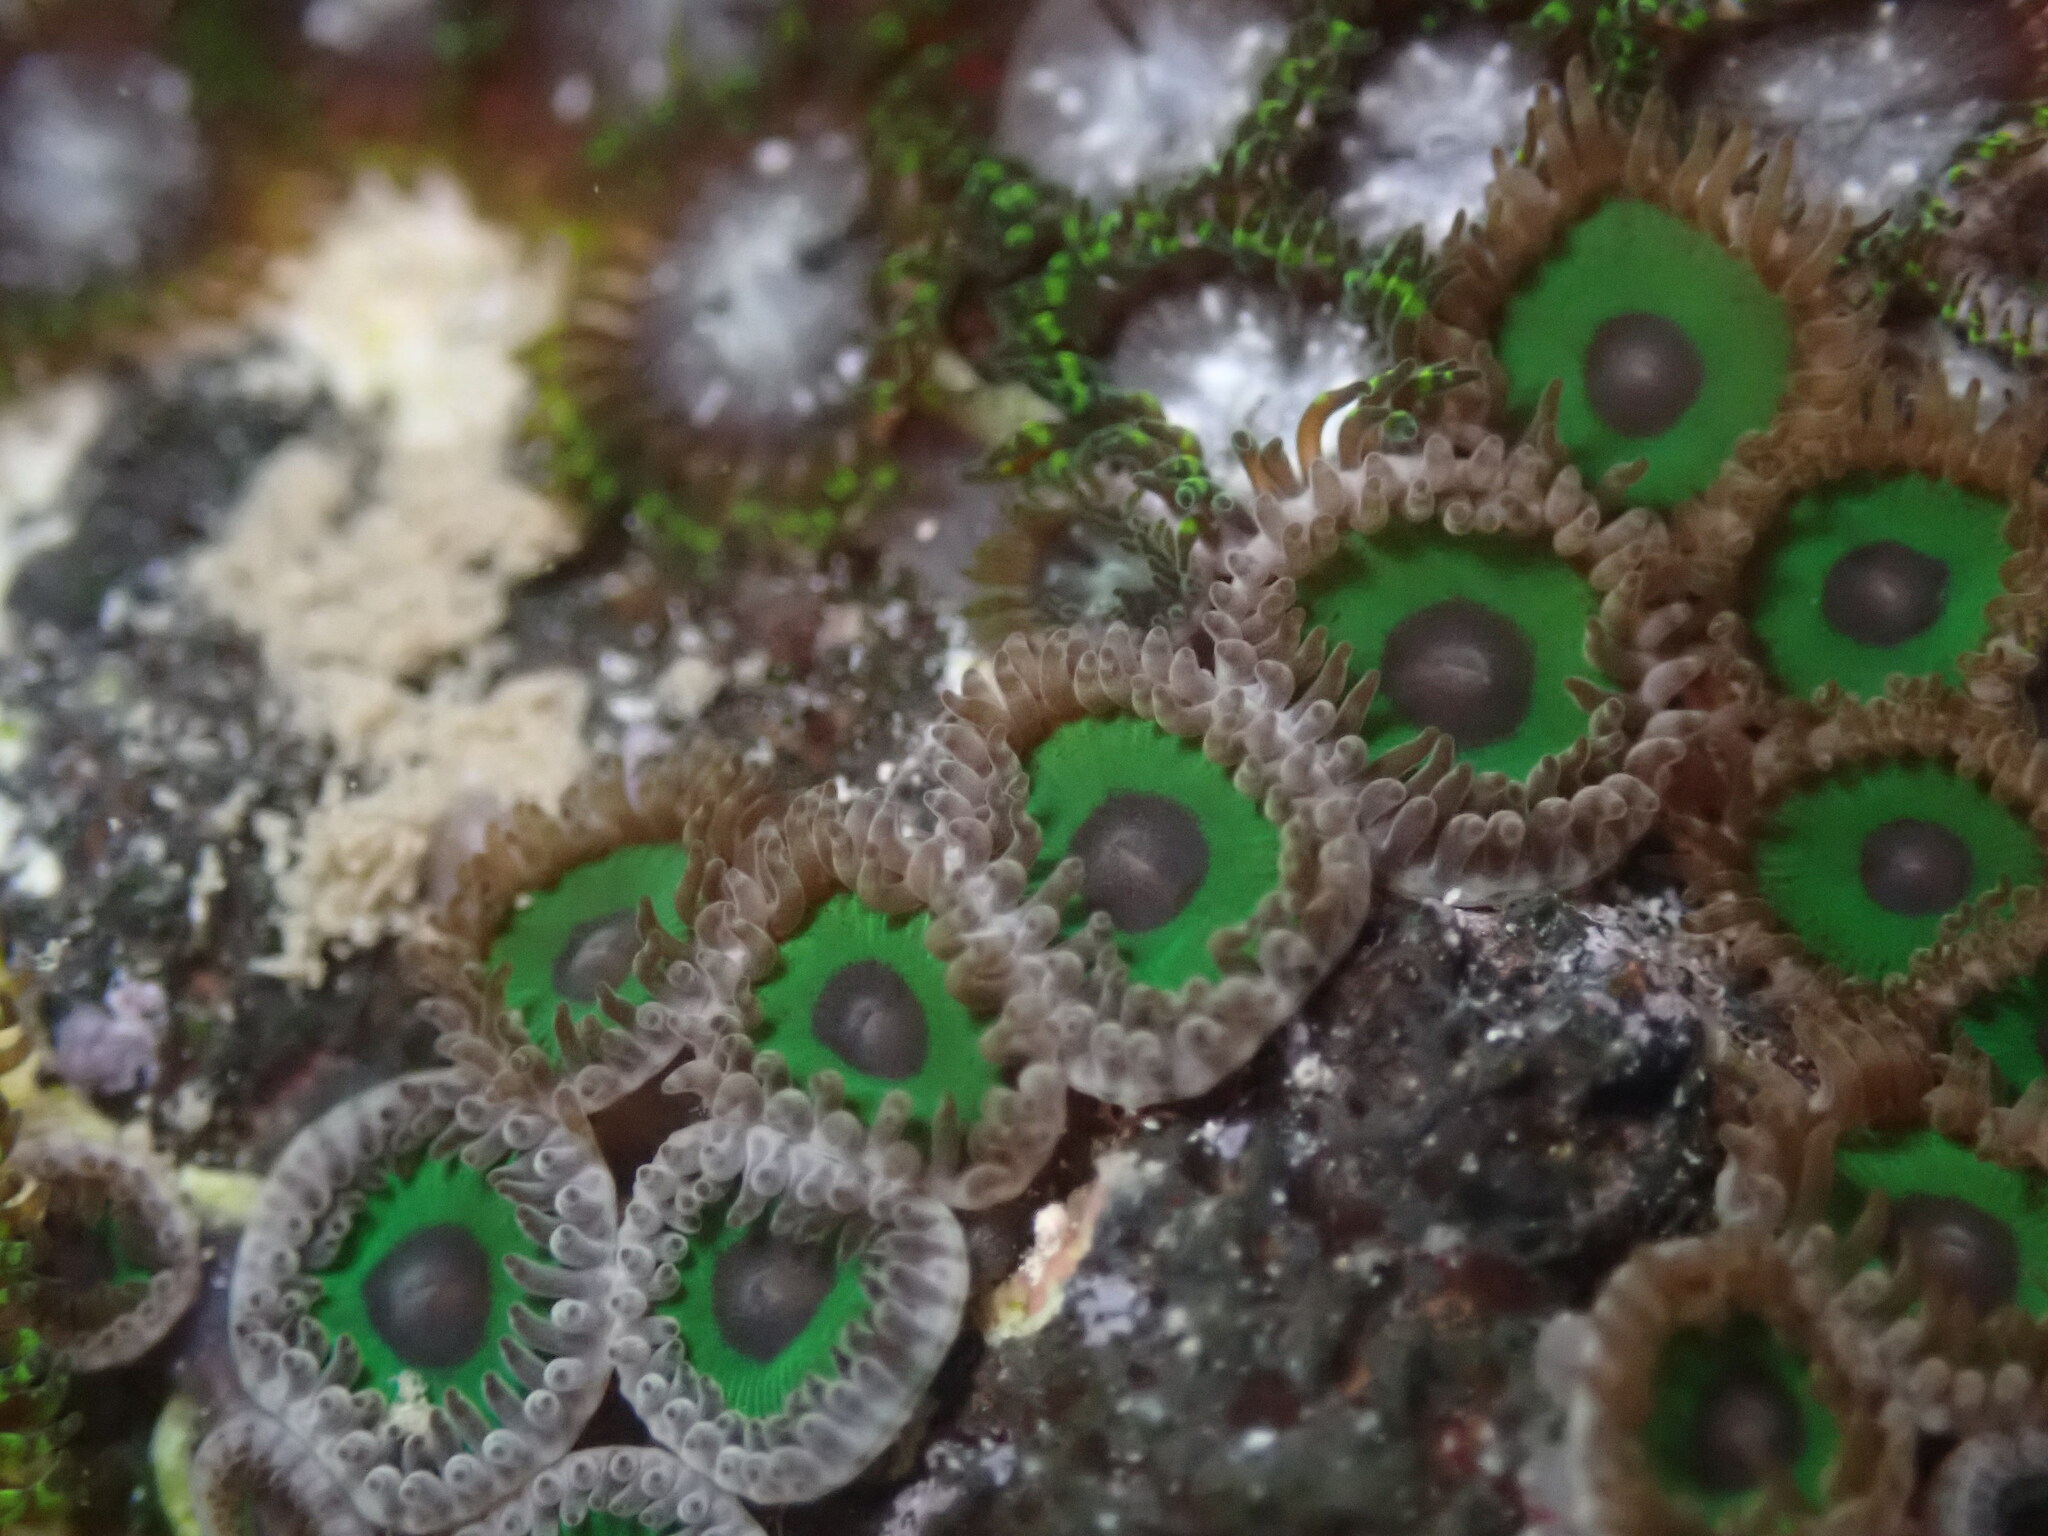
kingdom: Animalia
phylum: Cnidaria
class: Anthozoa
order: Zoantharia
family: Zoanthidae
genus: Zoanthus
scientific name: Zoanthus sansibaricus
